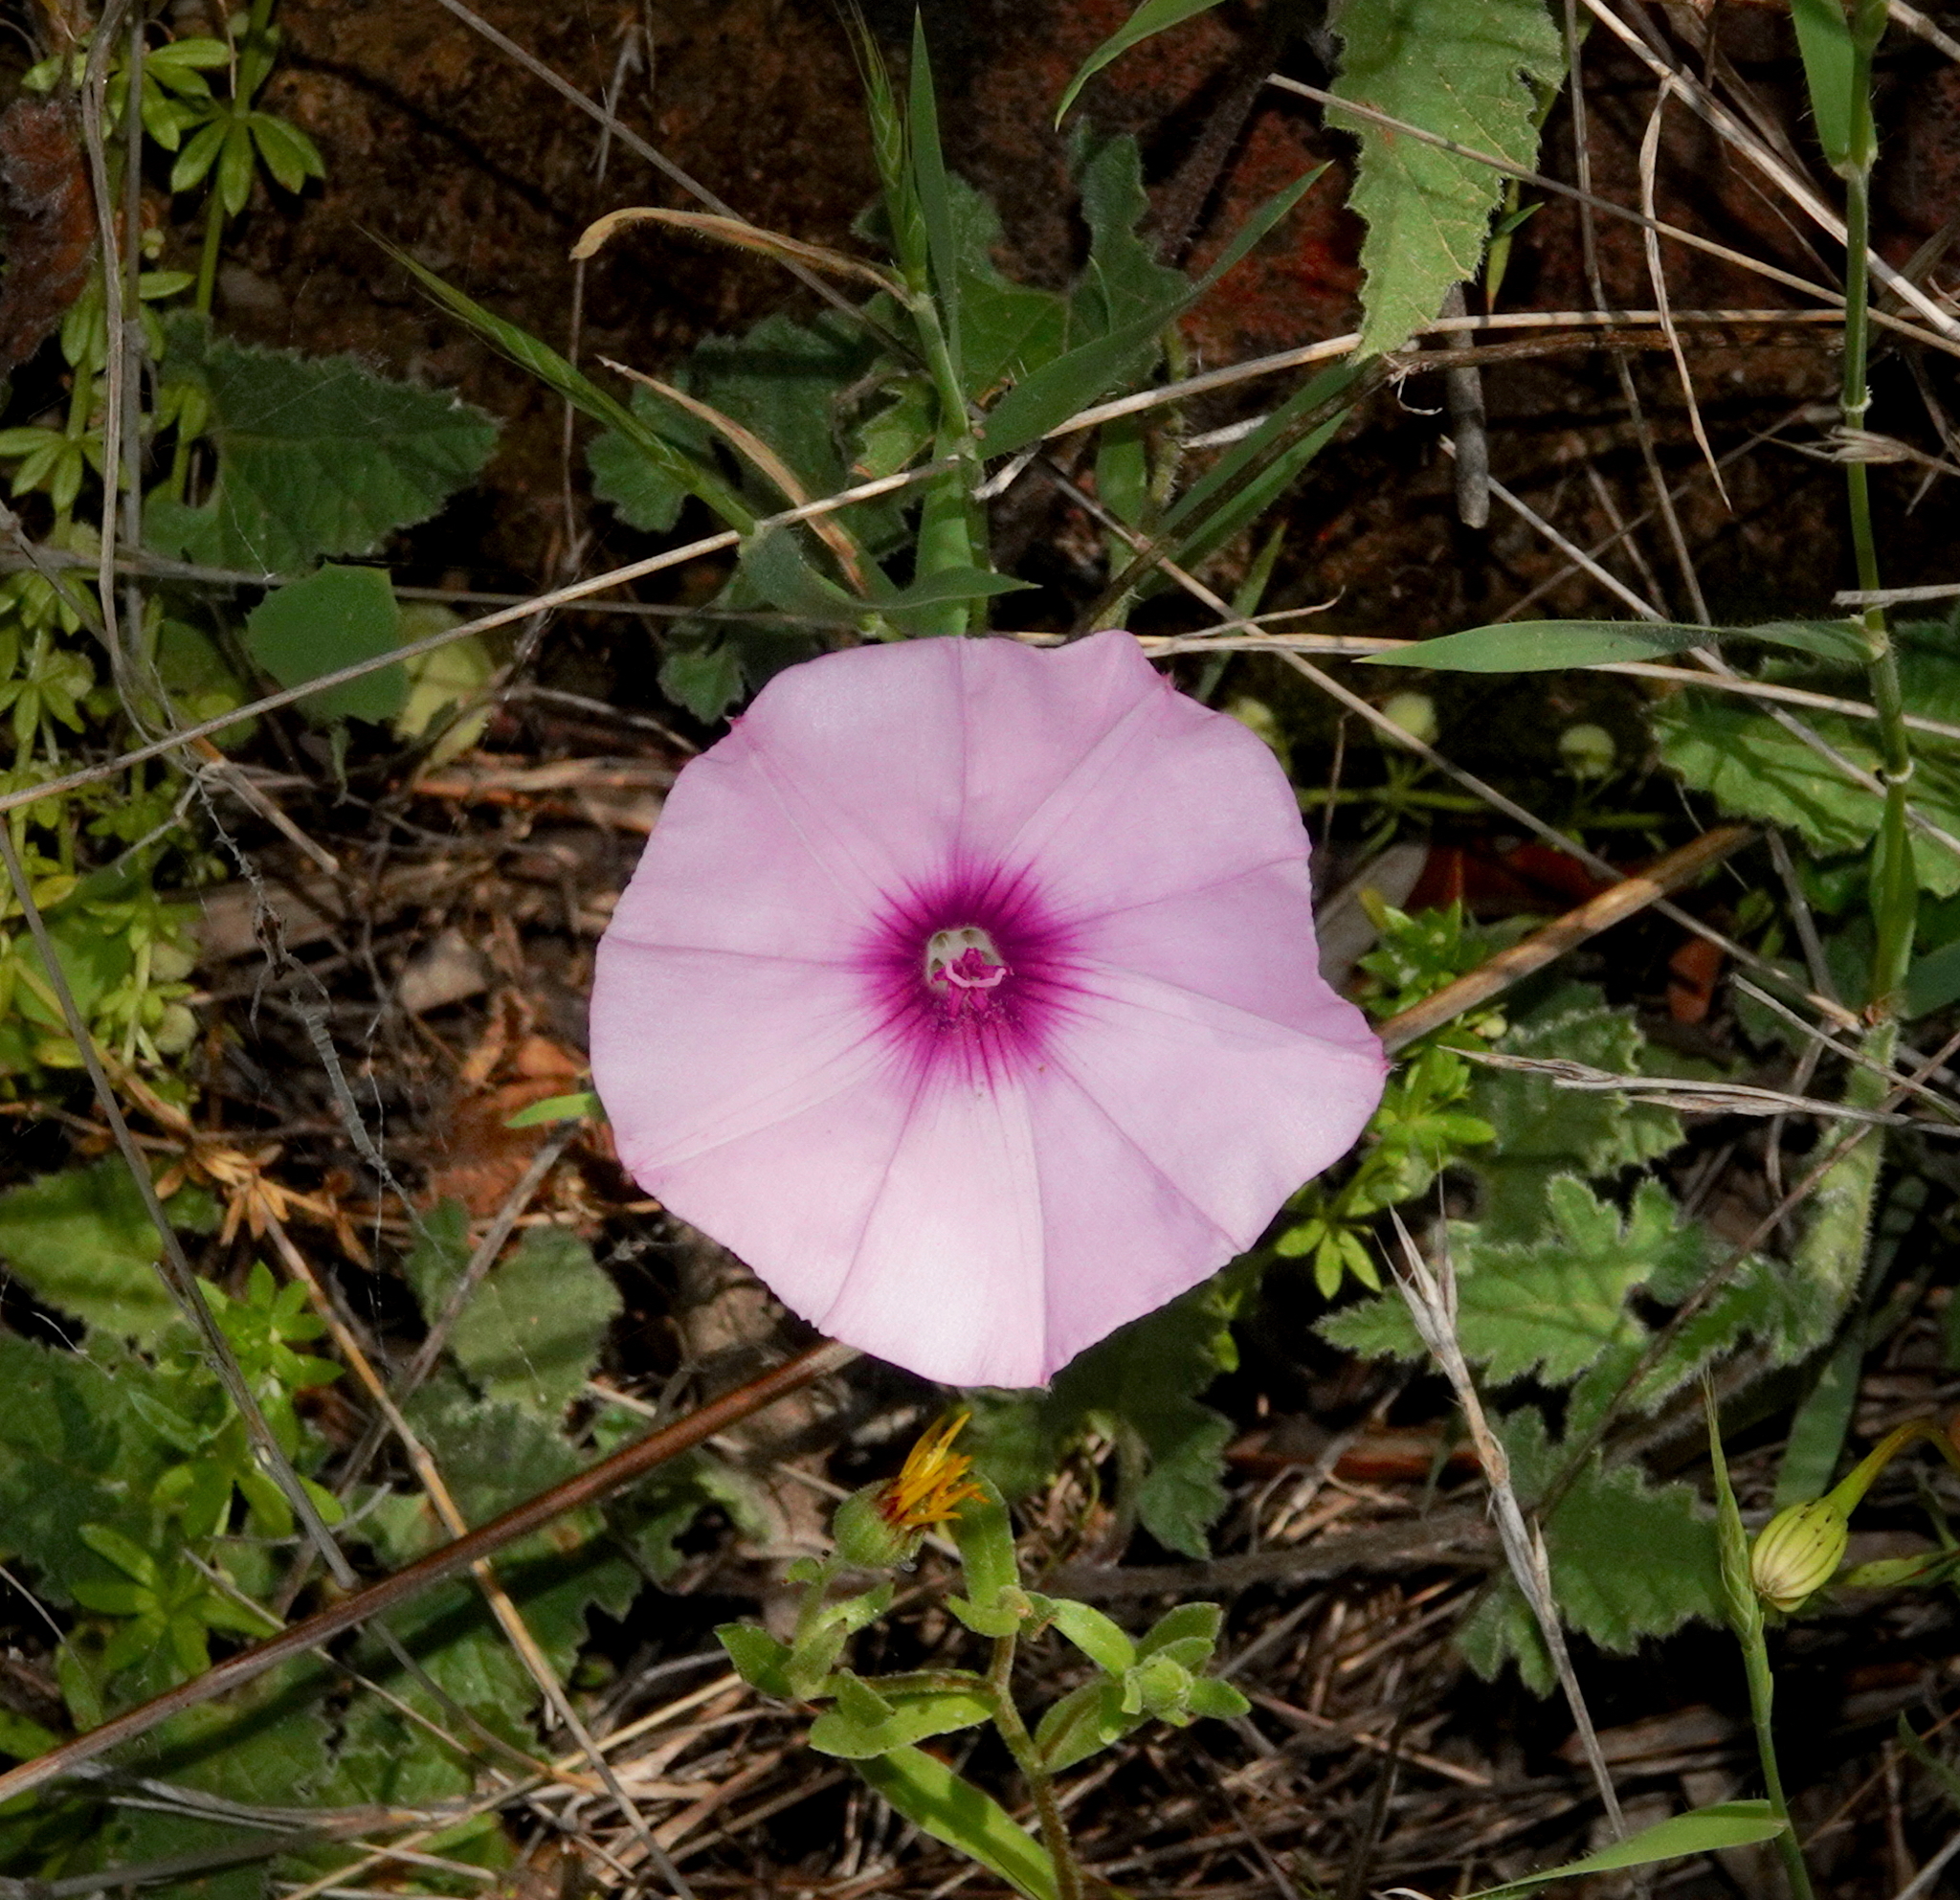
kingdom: Plantae
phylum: Tracheophyta
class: Magnoliopsida
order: Solanales
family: Convolvulaceae
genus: Convolvulus
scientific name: Convolvulus althaeoides
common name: Mallow bindweed
